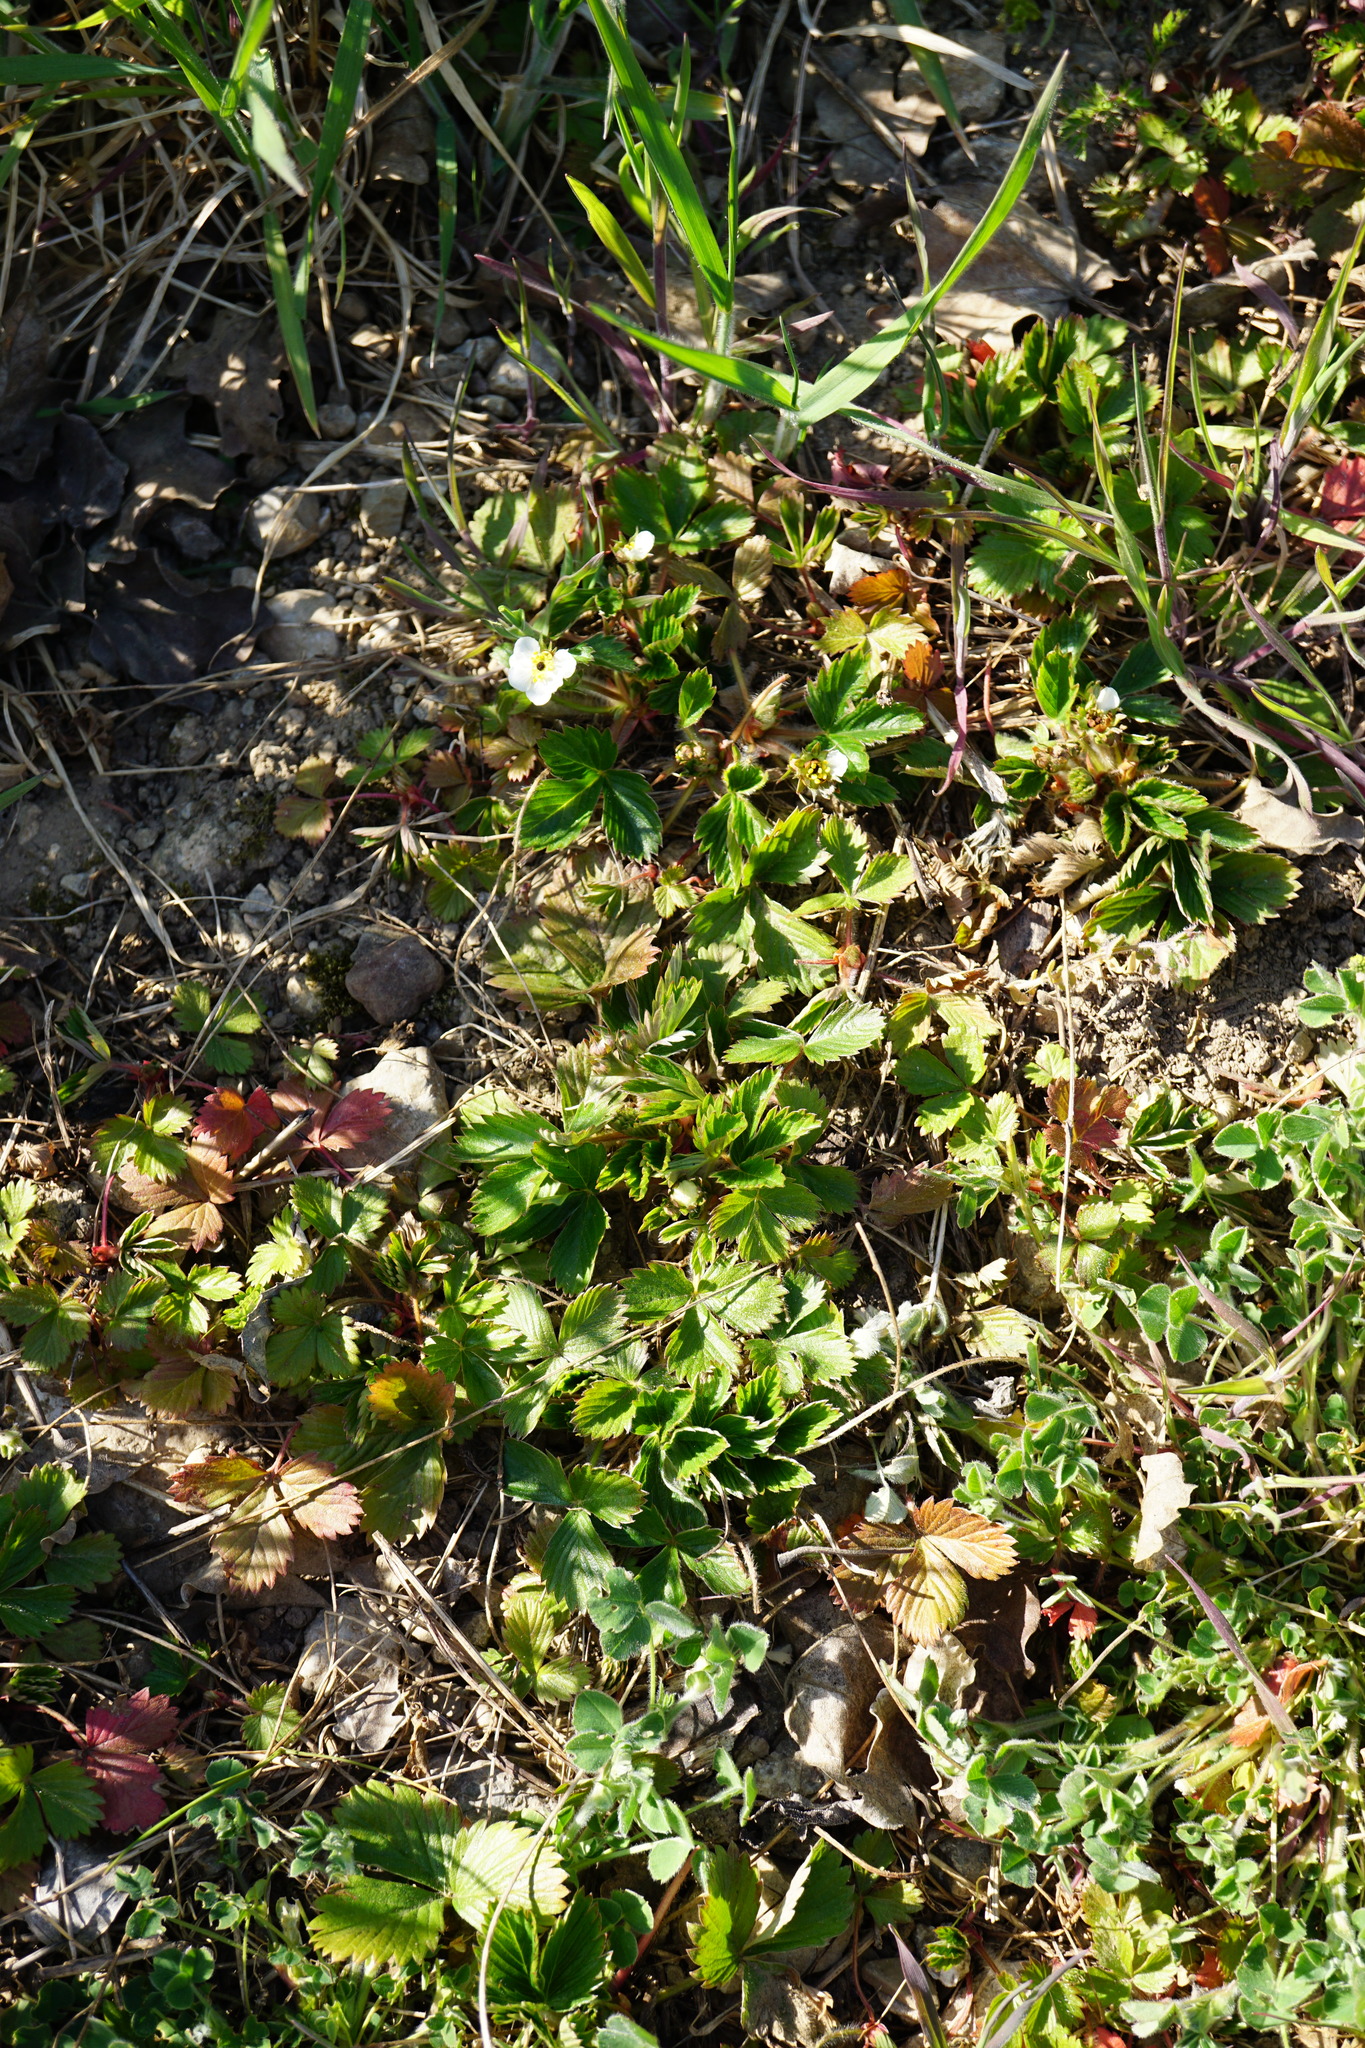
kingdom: Plantae
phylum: Tracheophyta
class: Magnoliopsida
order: Rosales
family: Rosaceae
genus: Fragaria
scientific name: Fragaria viridis
